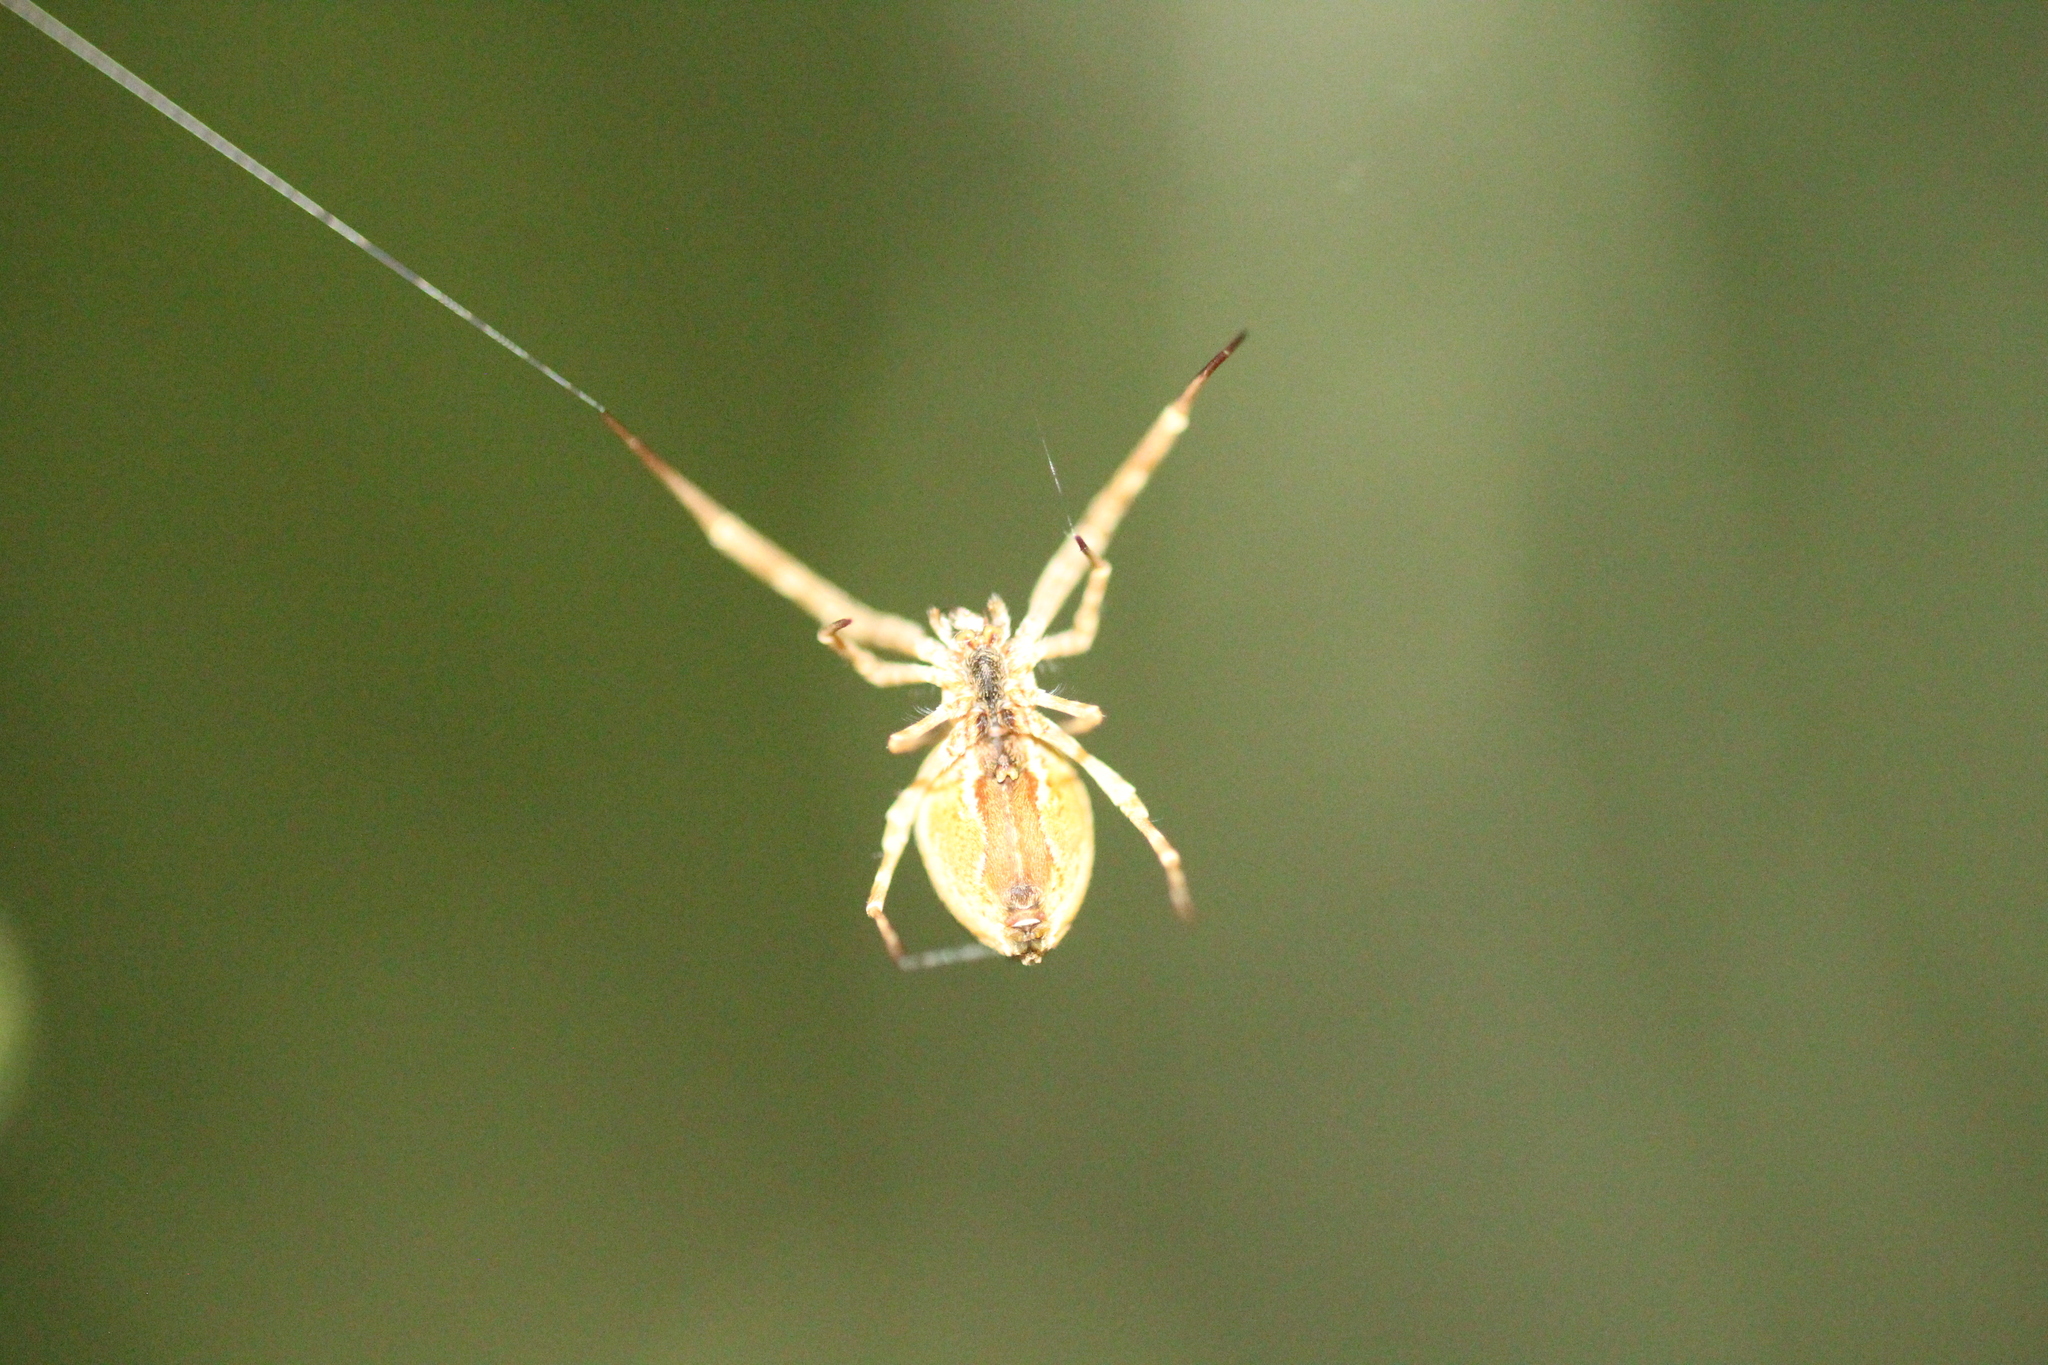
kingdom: Animalia
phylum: Arthropoda
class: Arachnida
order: Araneae
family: Uloboridae
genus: Uloborus
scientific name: Uloborus walckenaerius
